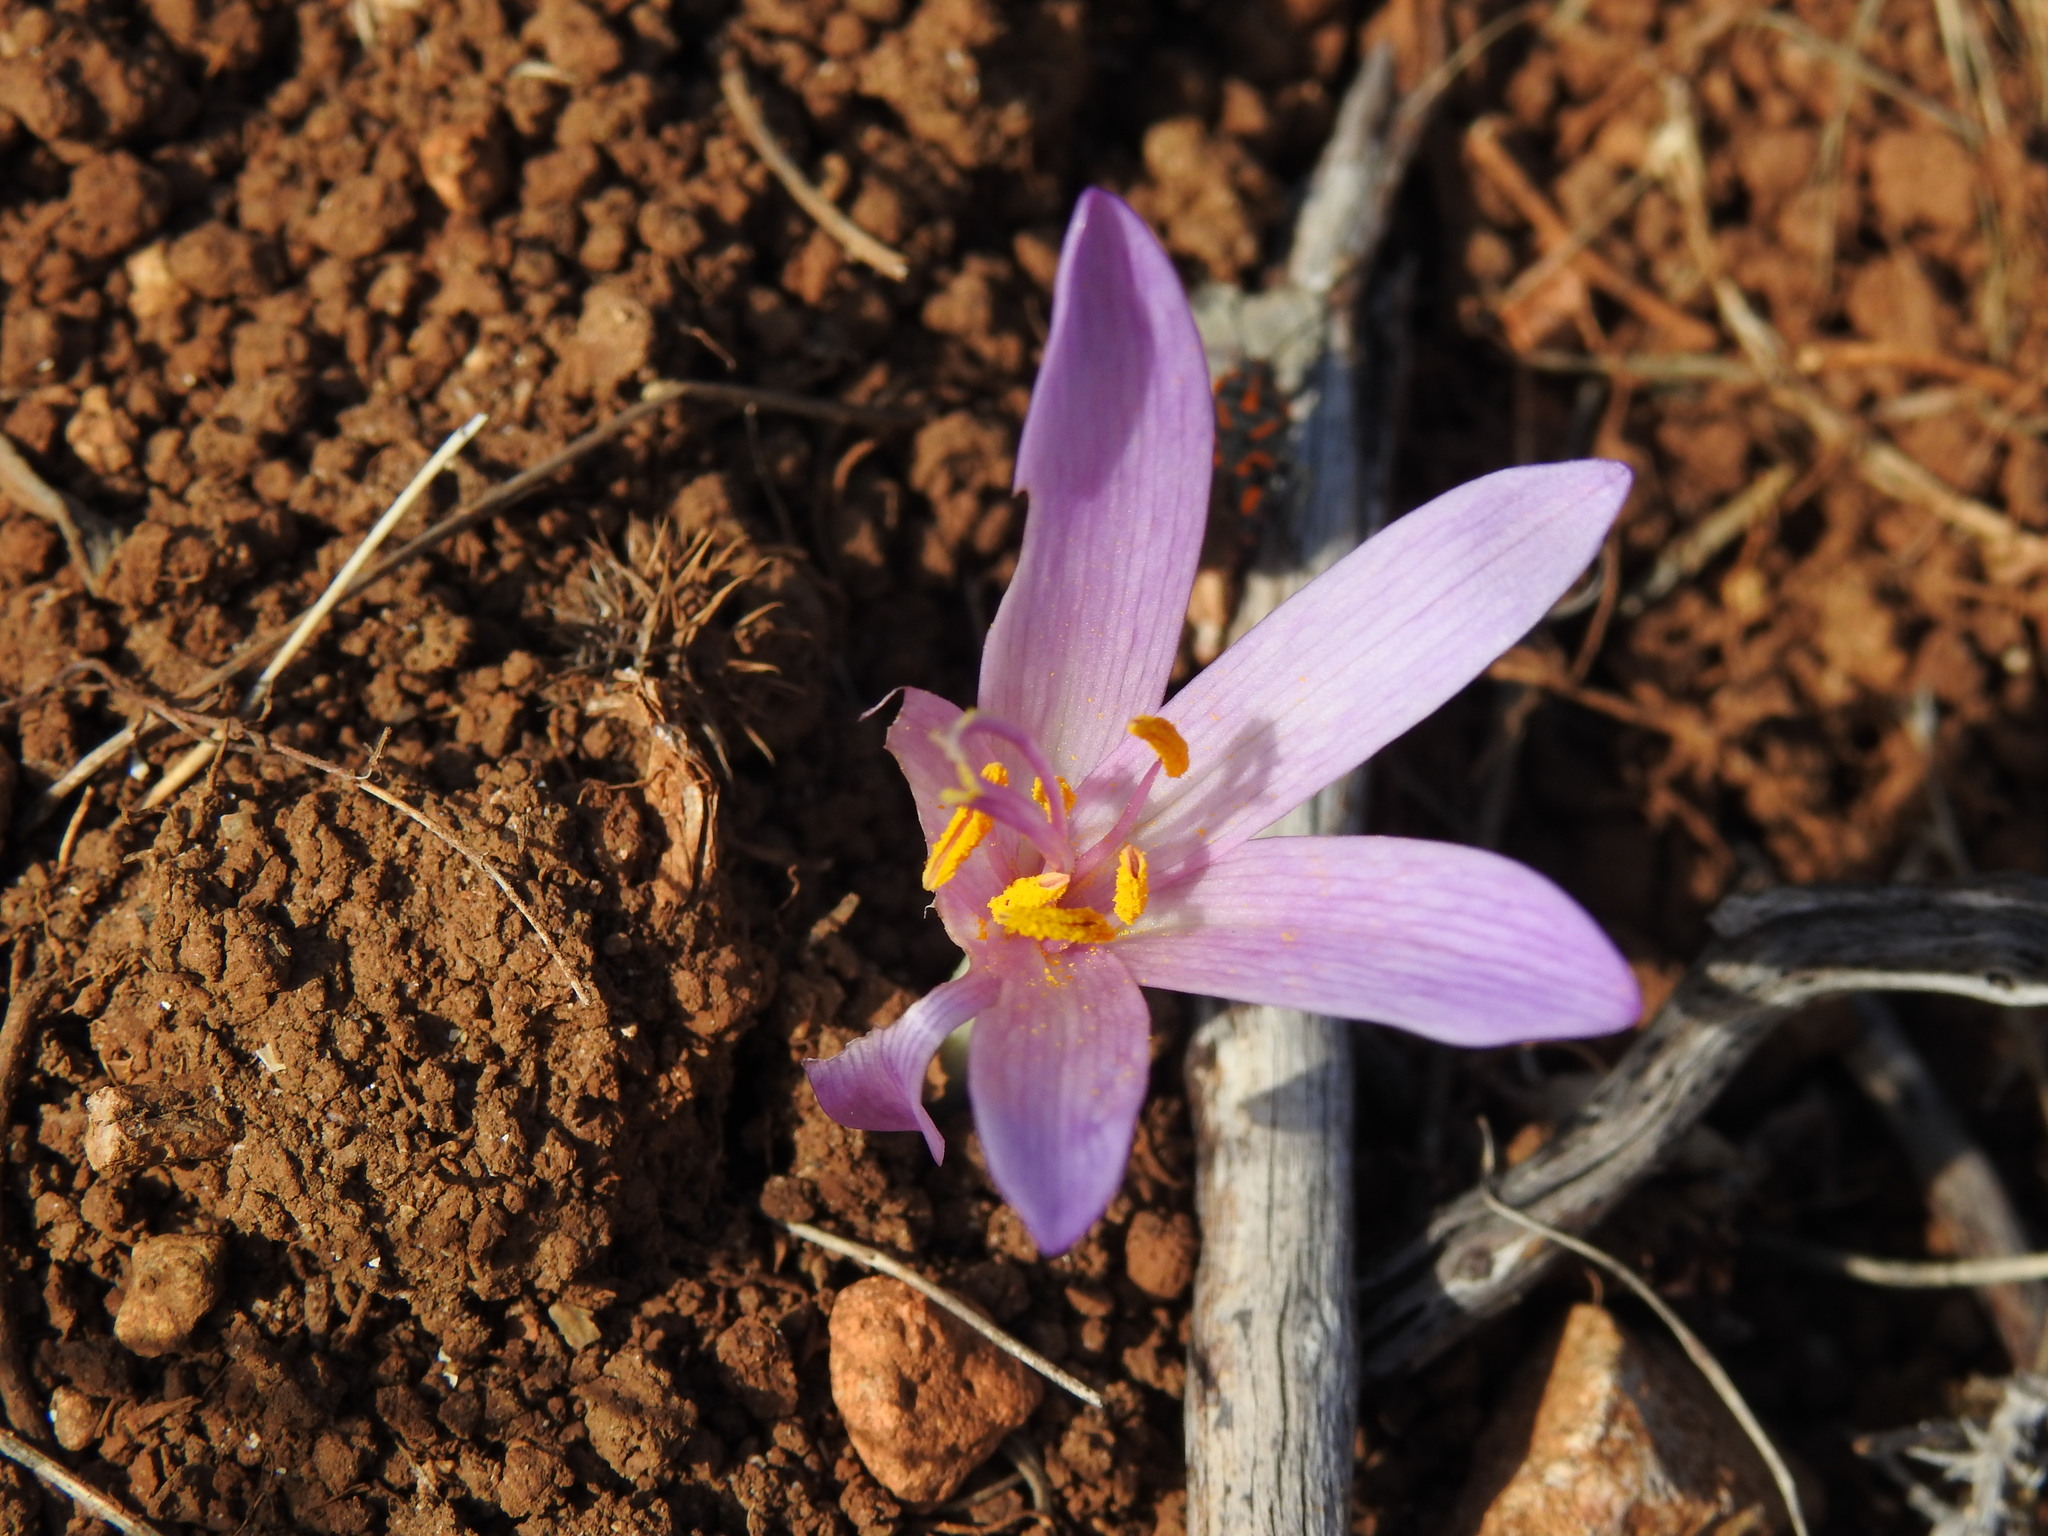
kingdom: Plantae
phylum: Tracheophyta
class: Liliopsida
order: Liliales
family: Colchicaceae
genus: Colchicum
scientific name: Colchicum lusitanum
